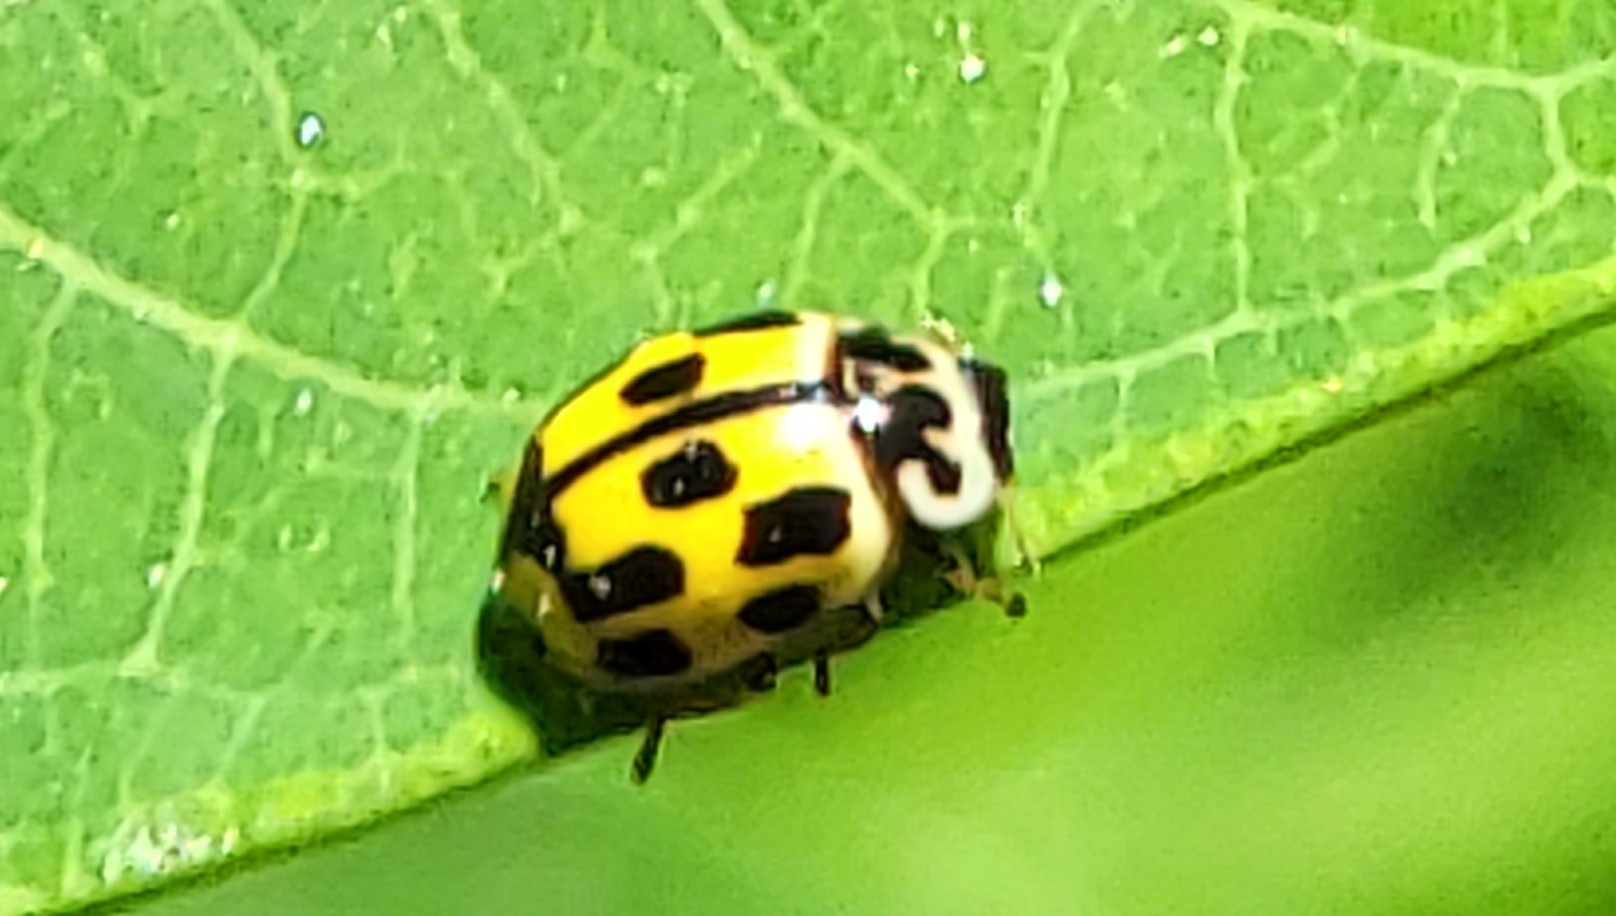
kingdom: Animalia
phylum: Arthropoda
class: Insecta
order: Coleoptera
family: Coccinellidae
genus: Propylaea
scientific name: Propylaea quatuordecimpunctata
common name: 14-spotted ladybird beetle
